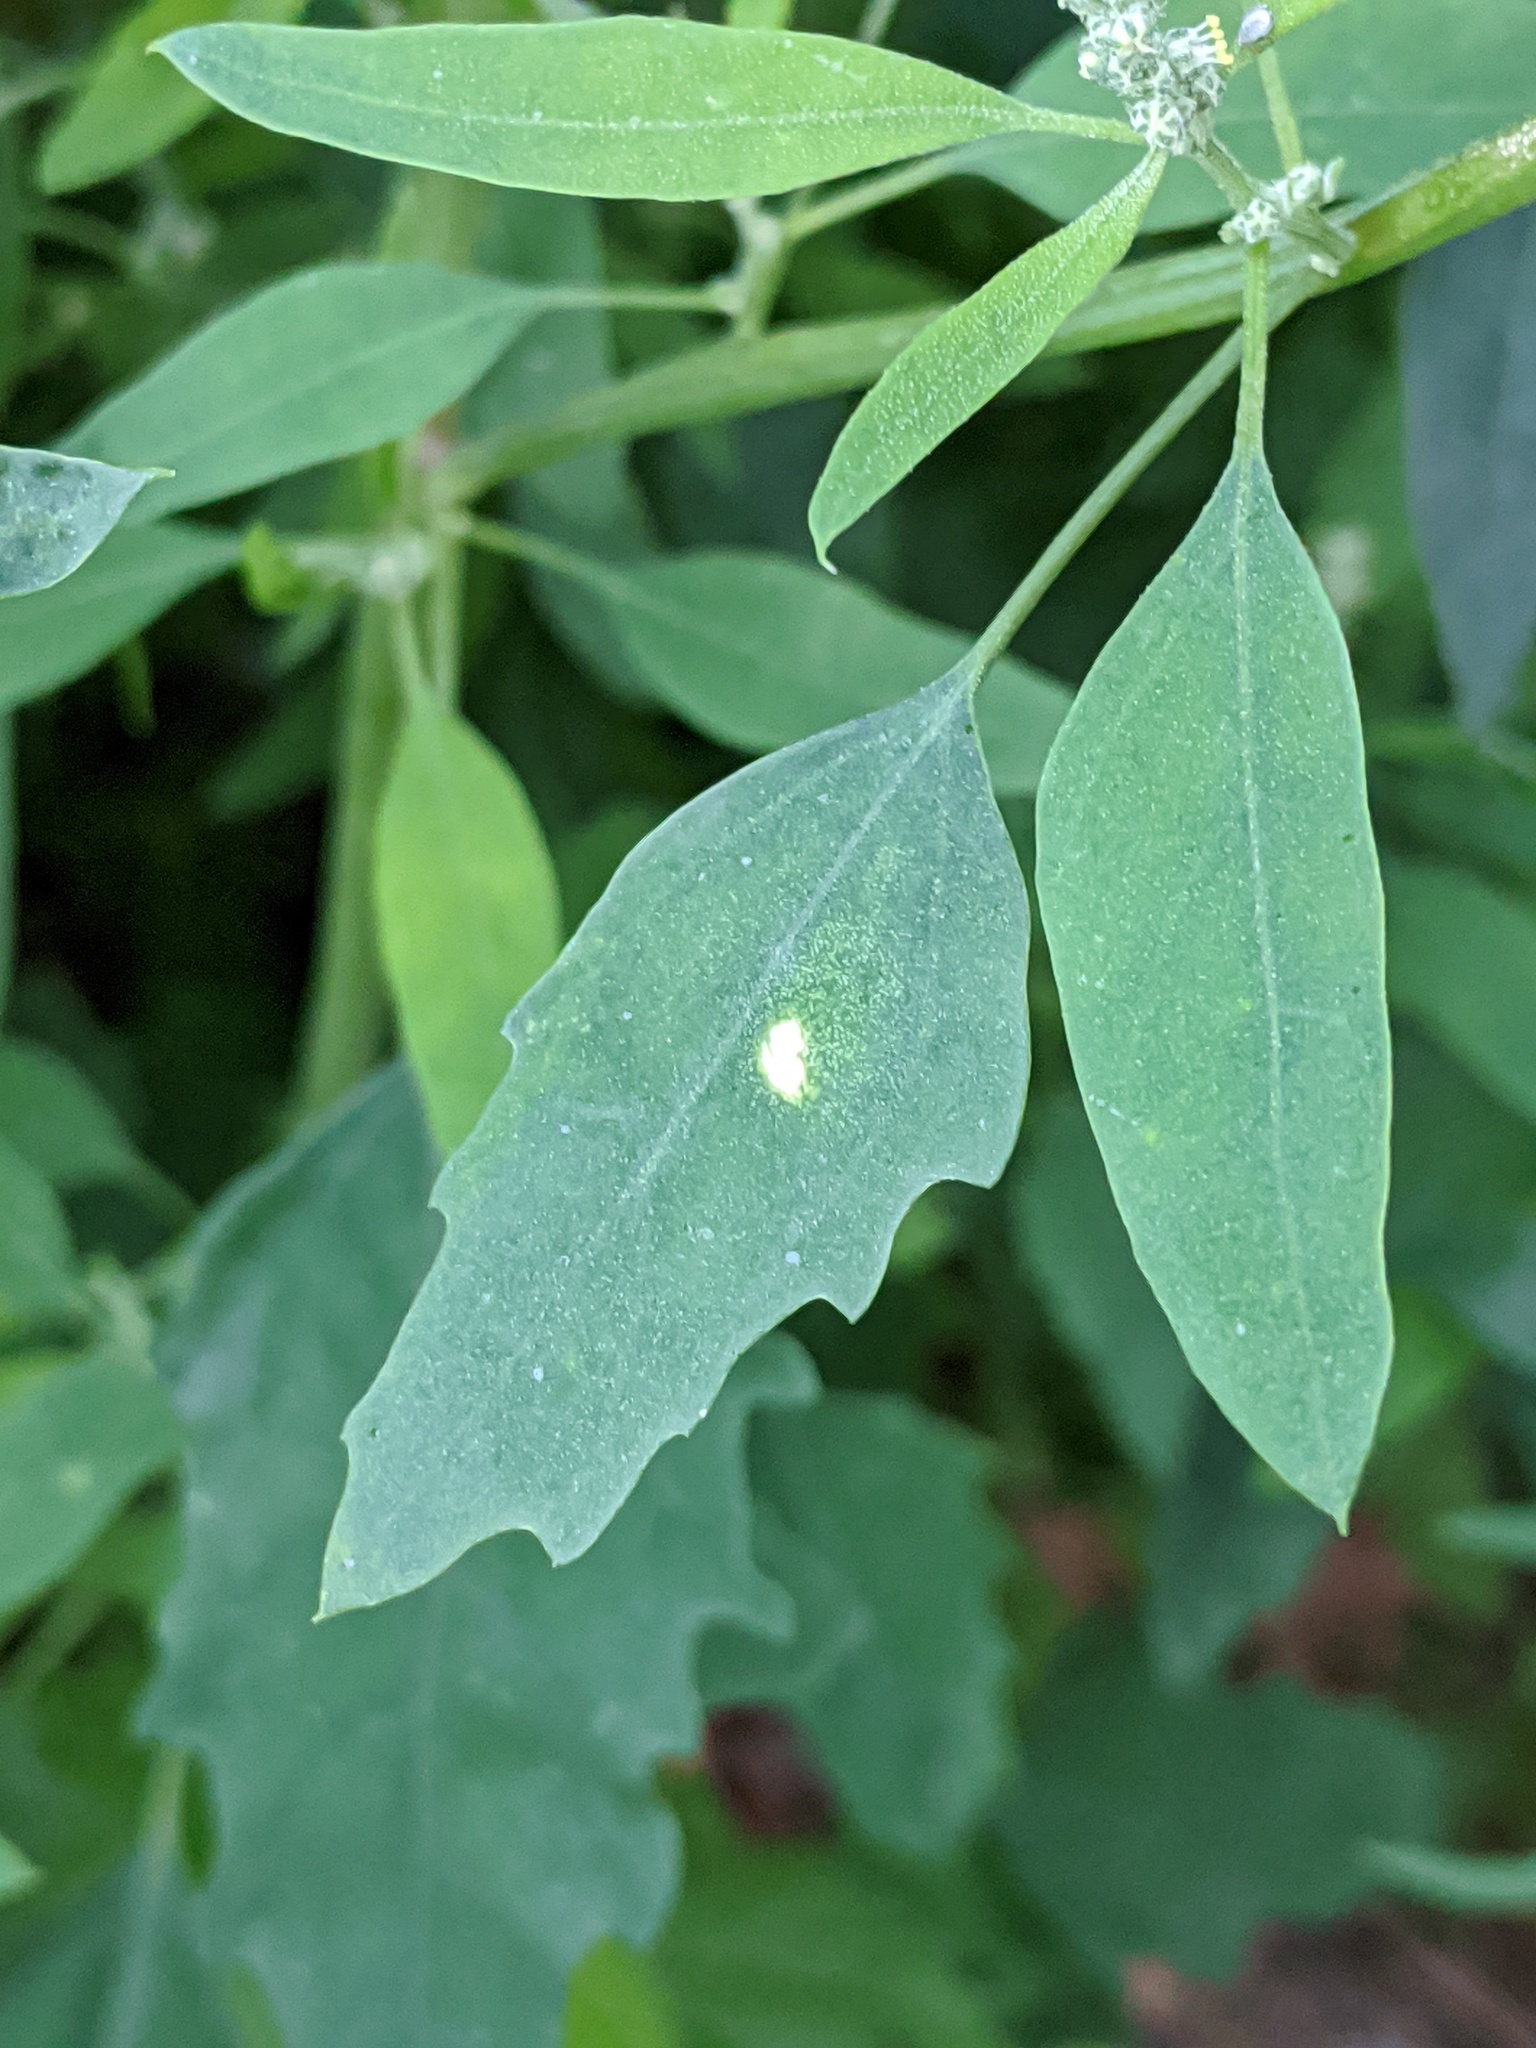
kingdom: Plantae
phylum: Tracheophyta
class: Magnoliopsida
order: Caryophyllales
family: Amaranthaceae
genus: Chenopodium
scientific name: Chenopodium album
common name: Fat-hen
